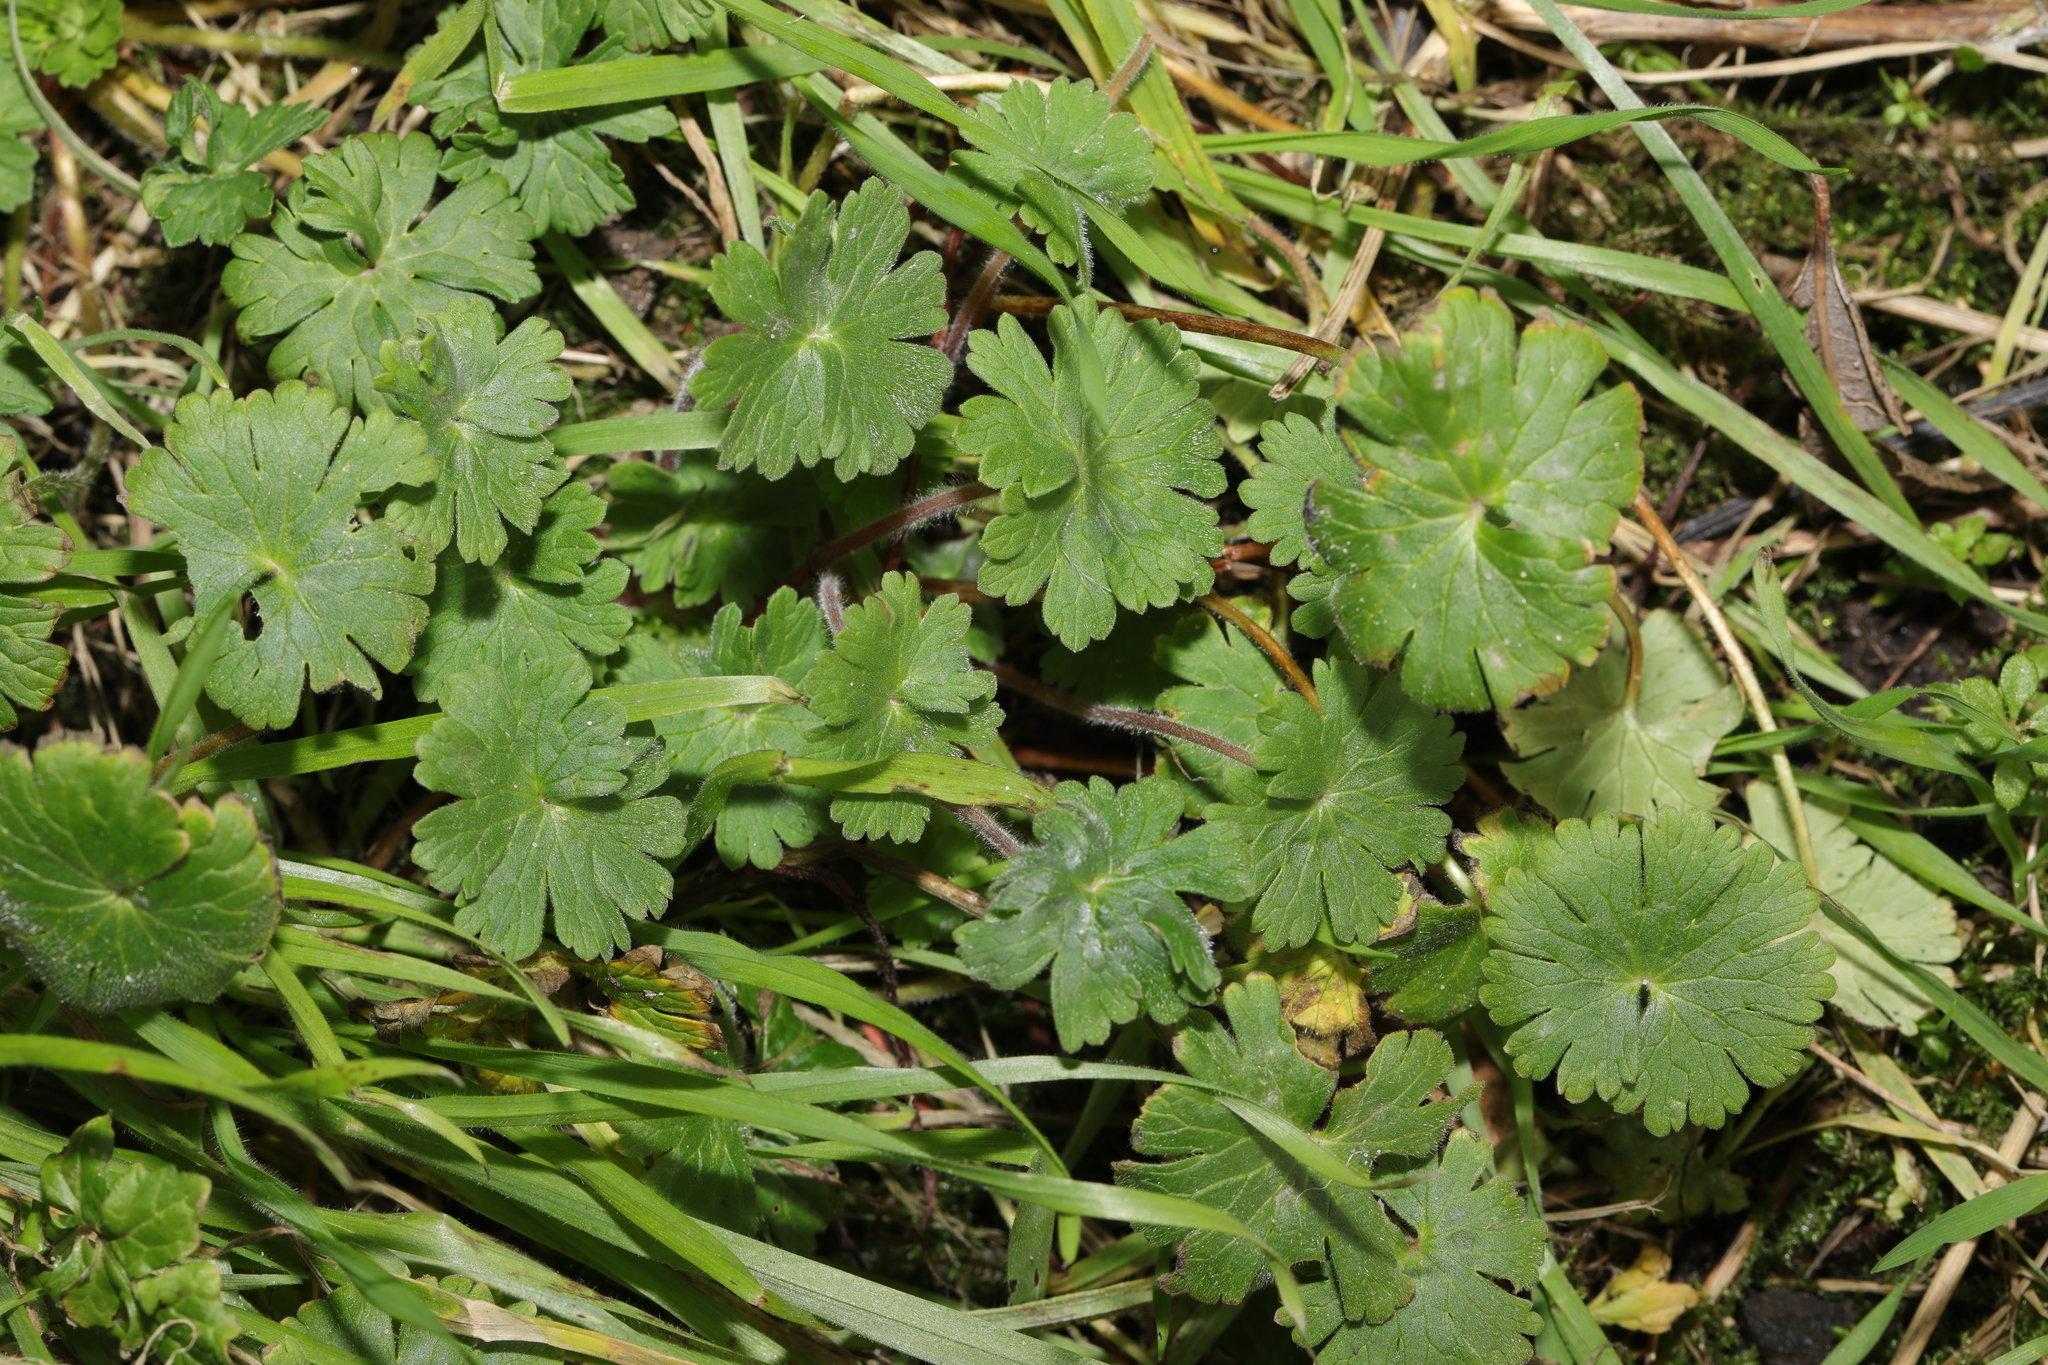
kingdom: Plantae
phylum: Tracheophyta
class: Magnoliopsida
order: Geraniales
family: Geraniaceae
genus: Geranium
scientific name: Geranium molle
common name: Dove's-foot crane's-bill
